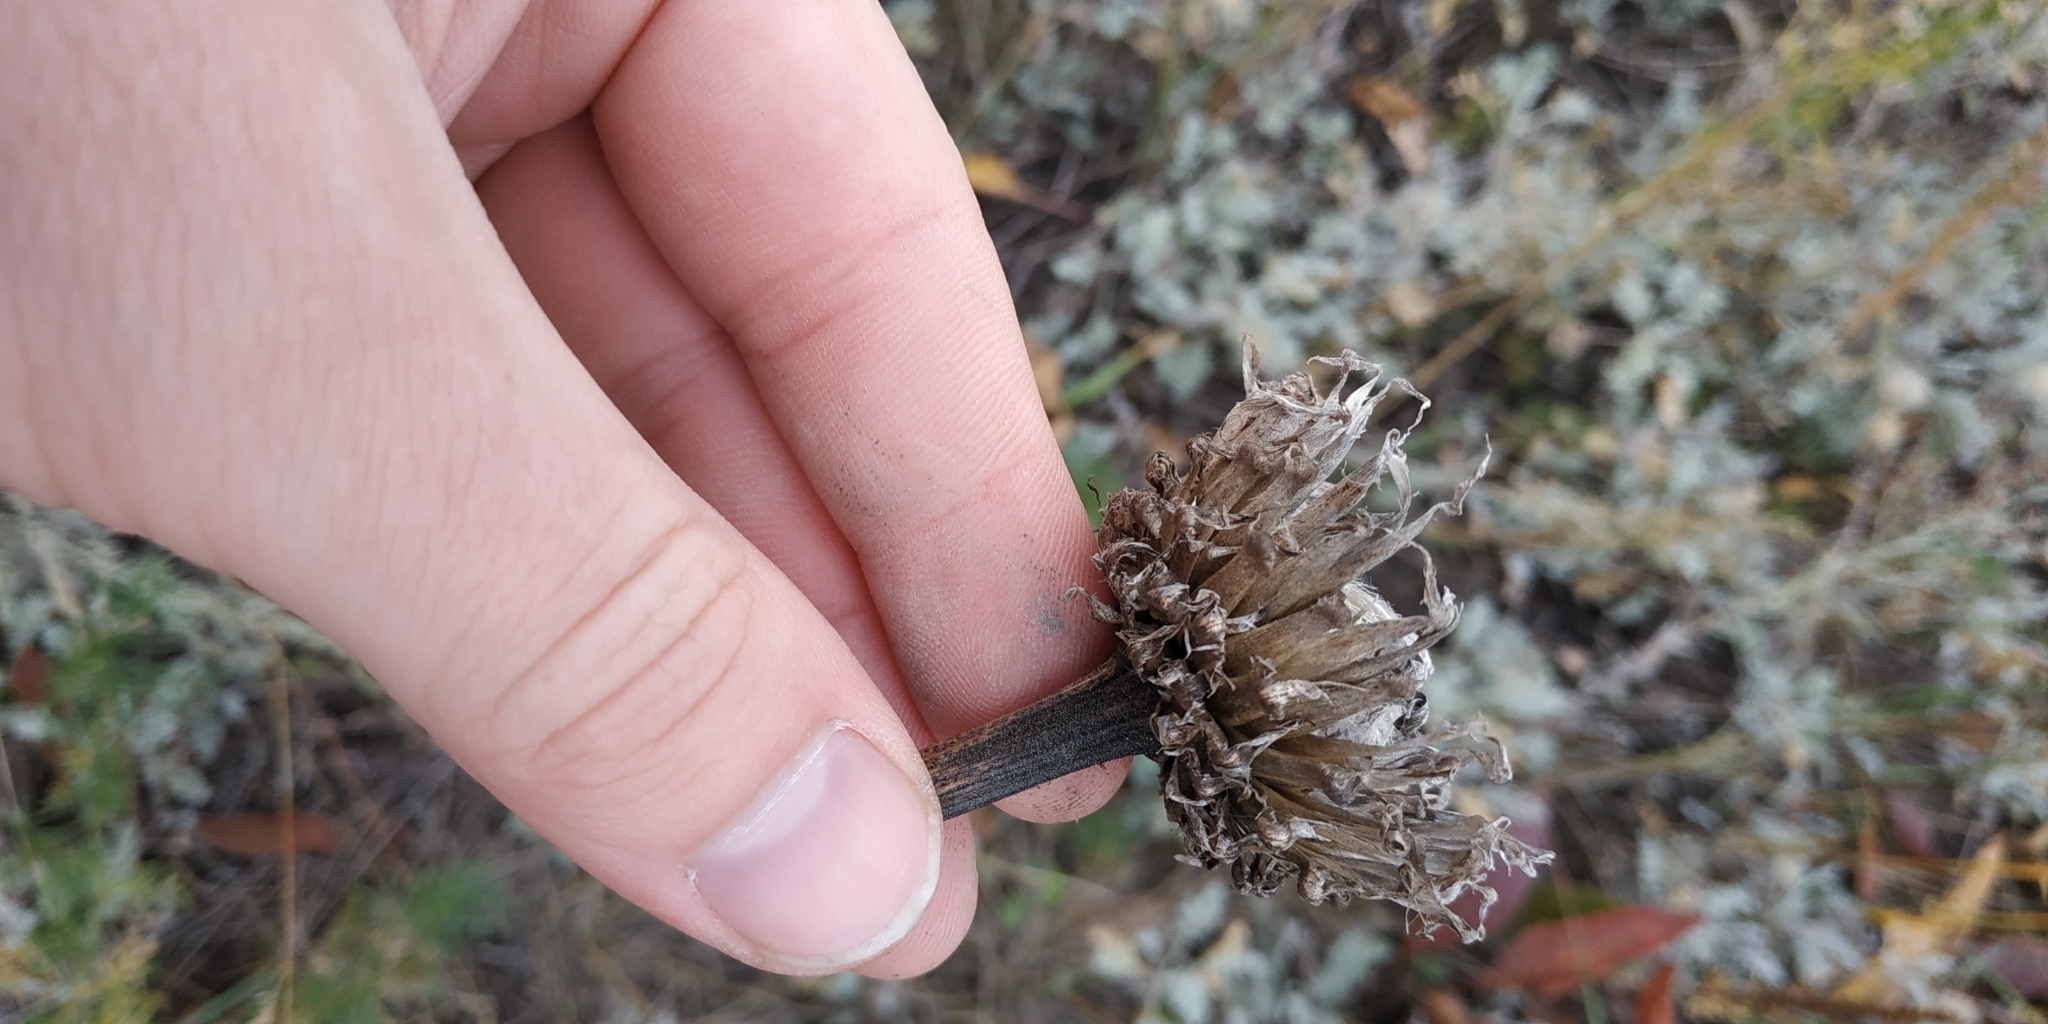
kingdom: Plantae
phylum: Tracheophyta
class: Magnoliopsida
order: Asterales
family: Asteraceae
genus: Carduus
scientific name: Carduus nutans
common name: Musk thistle
